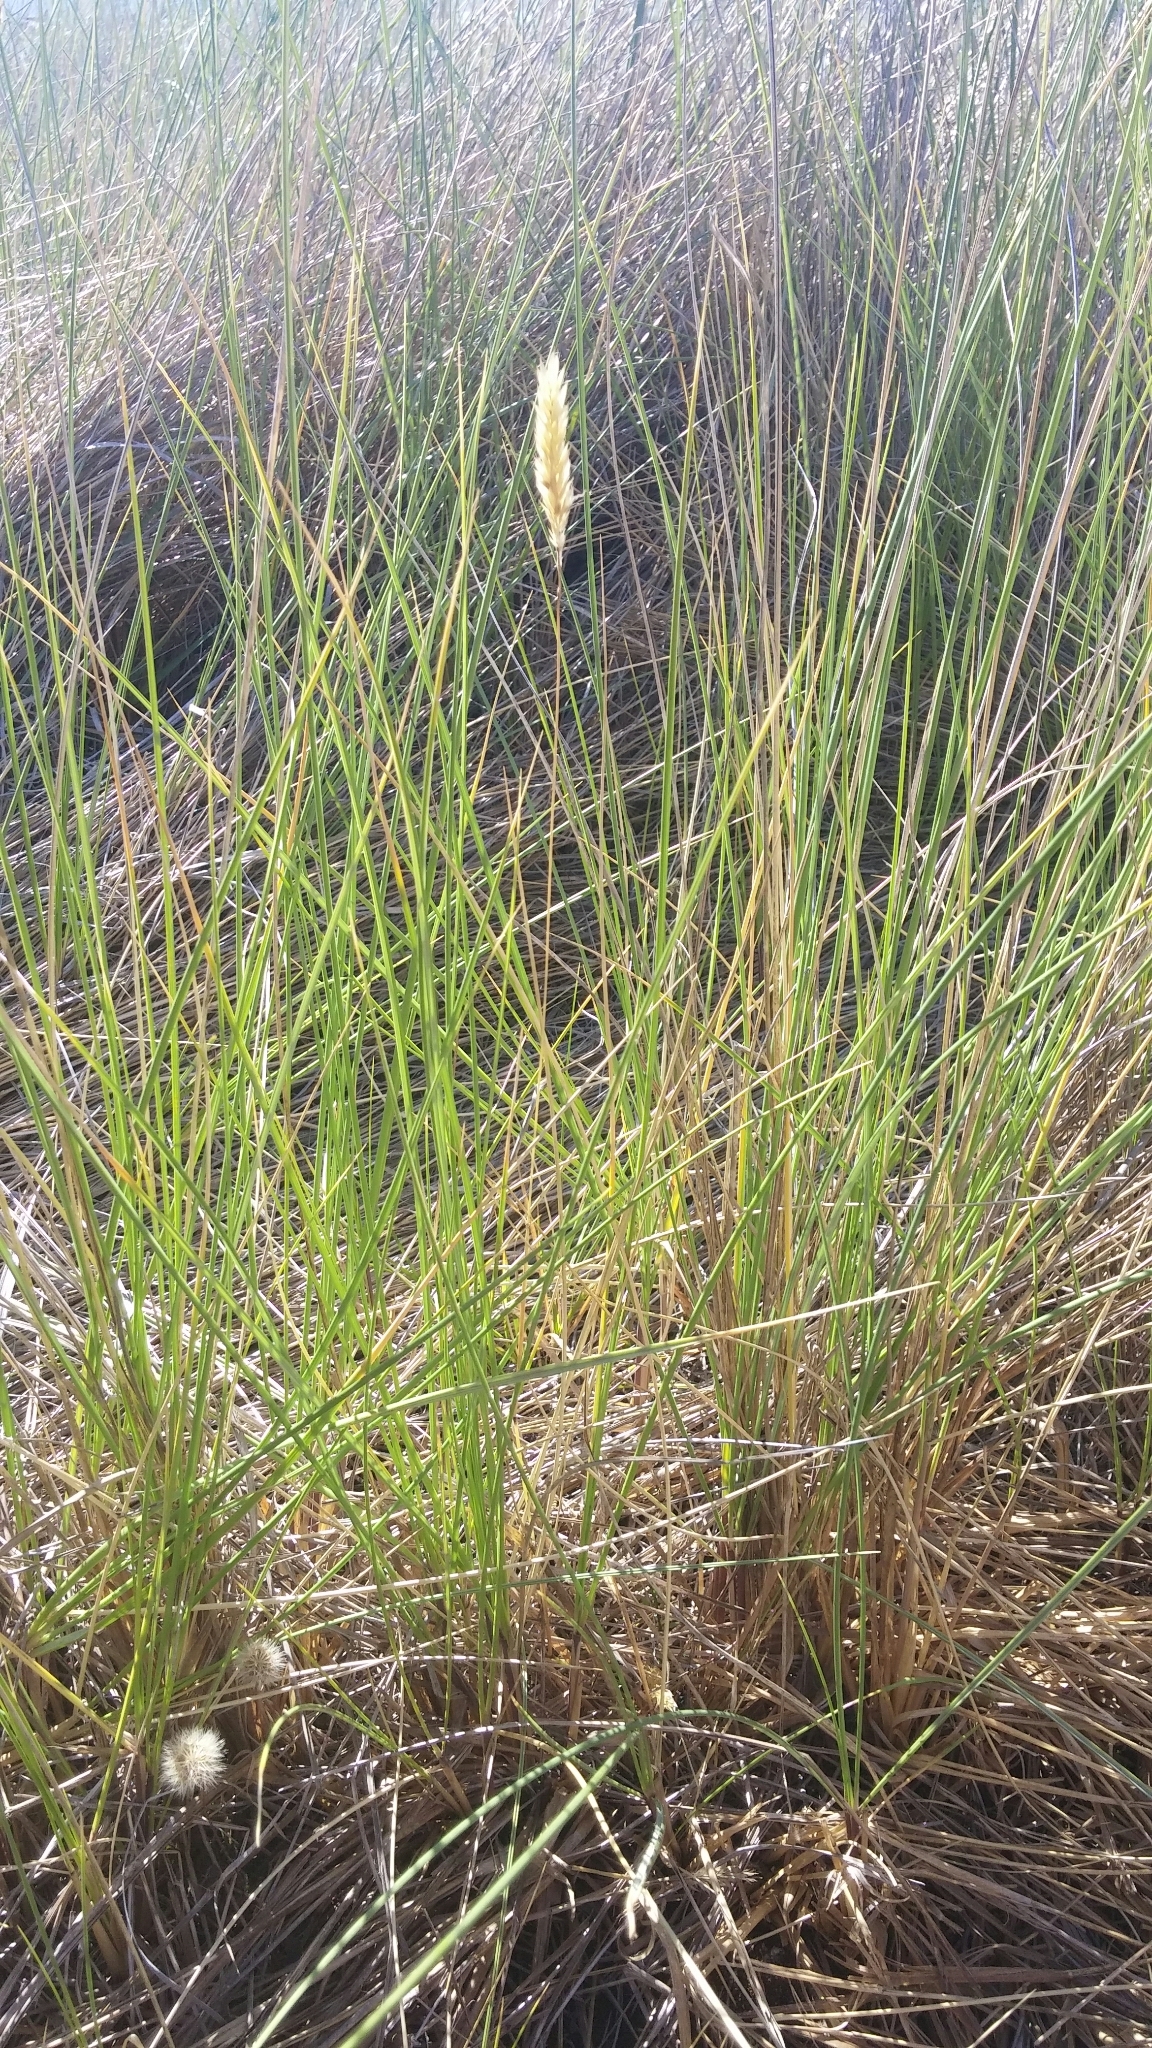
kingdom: Plantae
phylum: Tracheophyta
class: Liliopsida
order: Poales
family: Poaceae
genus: Anthoxanthum
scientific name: Anthoxanthum odoratum
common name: Sweet vernalgrass
